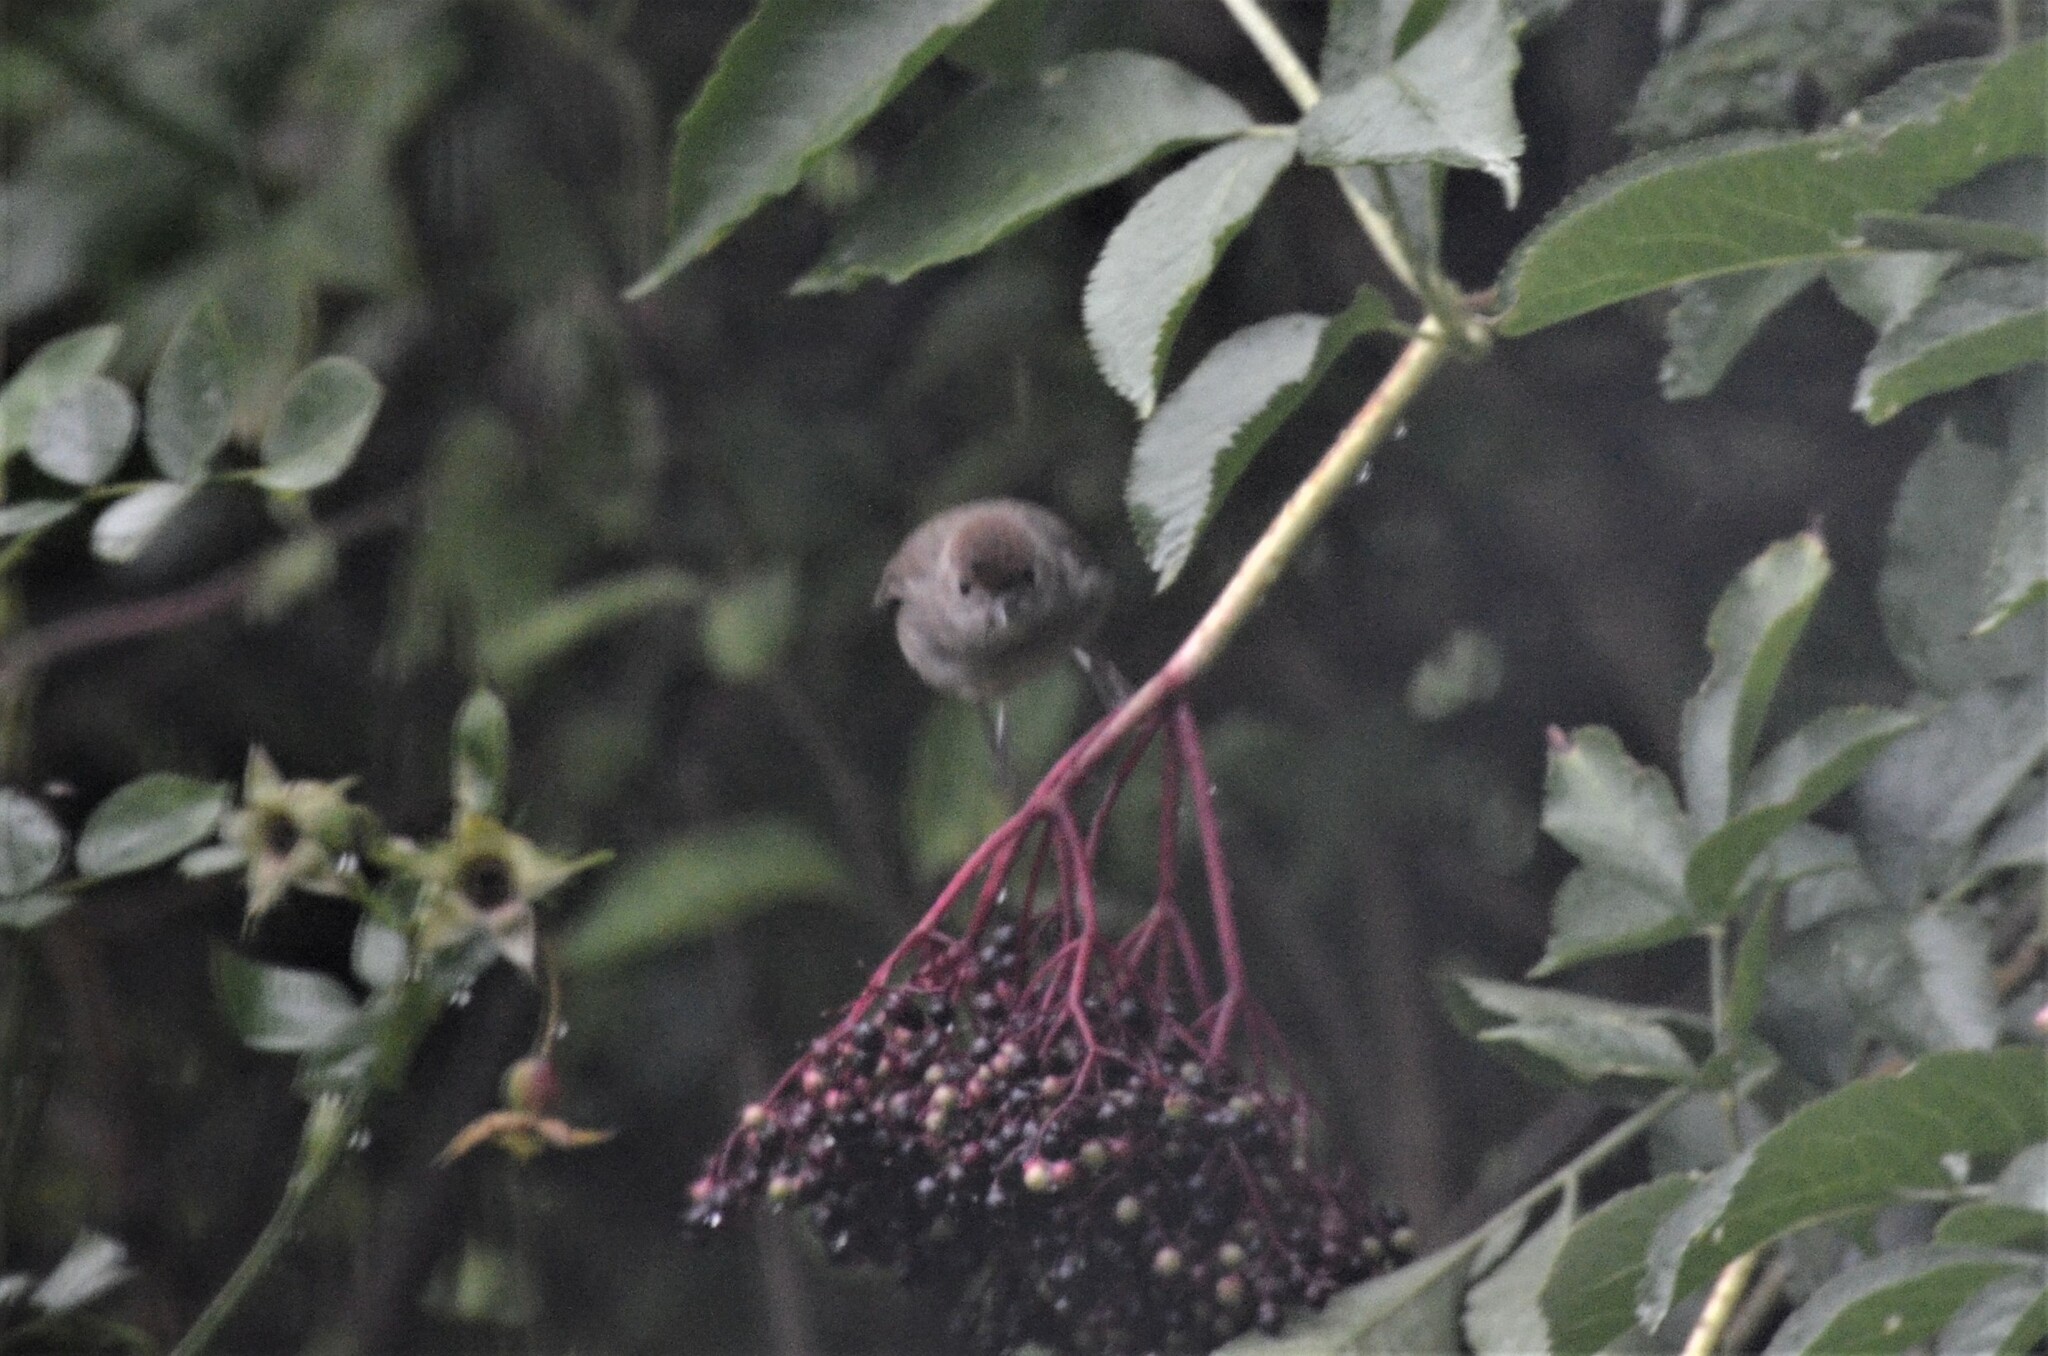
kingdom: Animalia
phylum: Chordata
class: Aves
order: Passeriformes
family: Sylviidae
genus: Sylvia
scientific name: Sylvia atricapilla
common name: Eurasian blackcap
